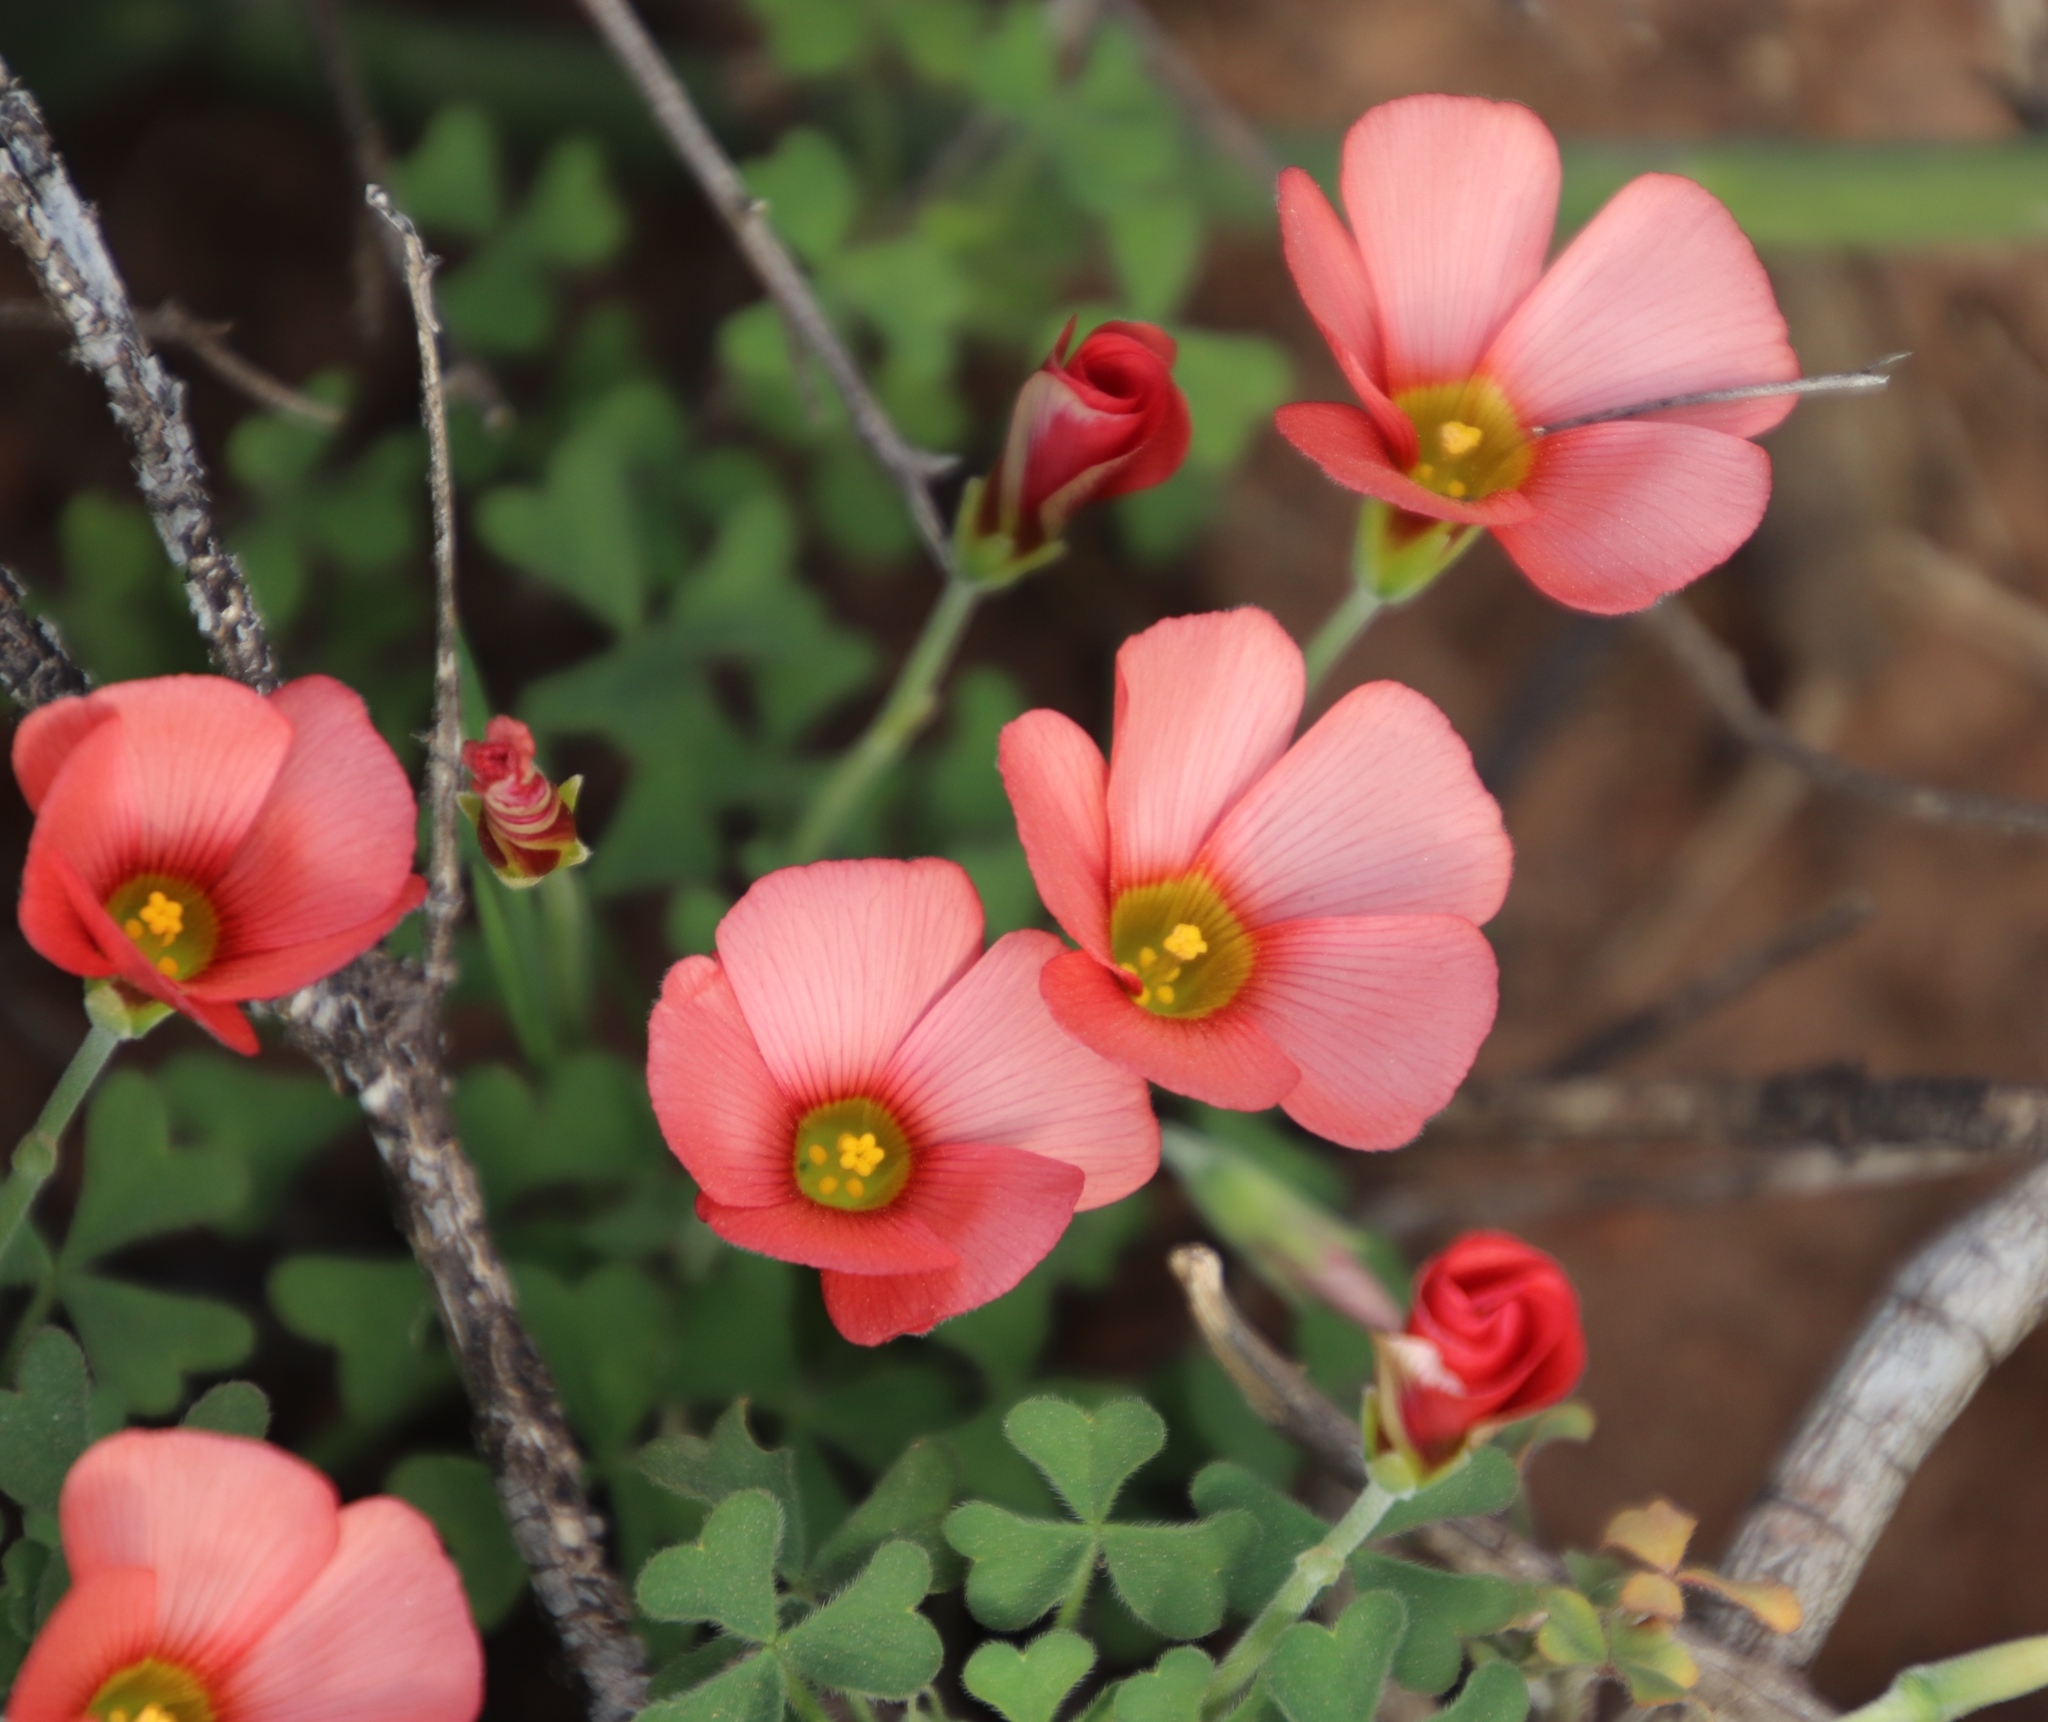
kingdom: Plantae
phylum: Tracheophyta
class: Magnoliopsida
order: Oxalidales
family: Oxalidaceae
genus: Oxalis
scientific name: Oxalis obtusa
